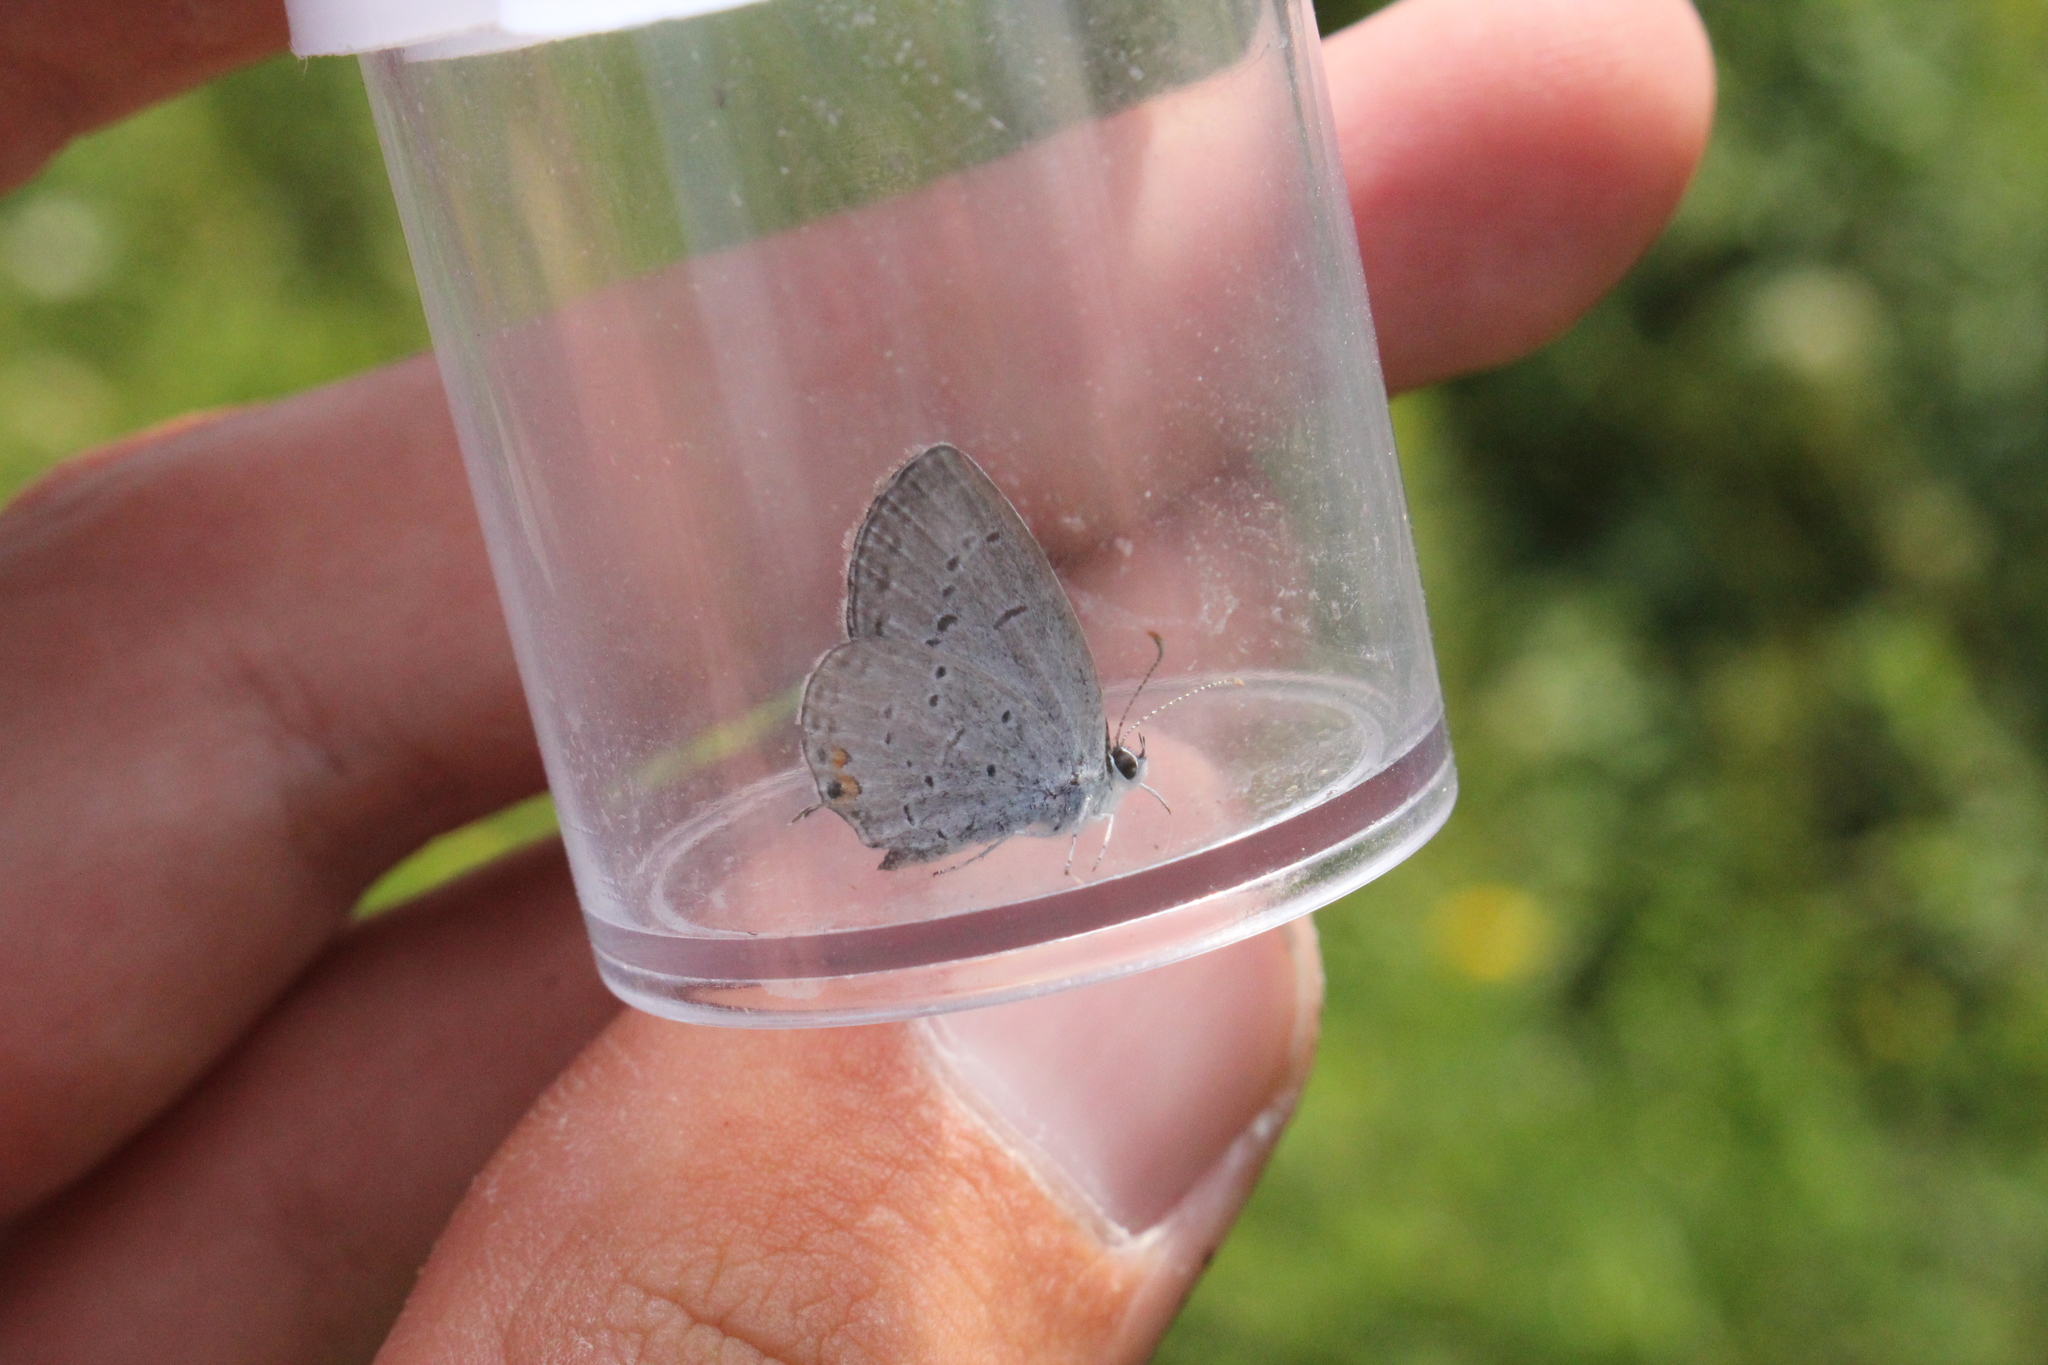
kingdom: Animalia
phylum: Arthropoda
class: Insecta
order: Lepidoptera
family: Lycaenidae
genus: Elkalyce
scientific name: Elkalyce comyntas
